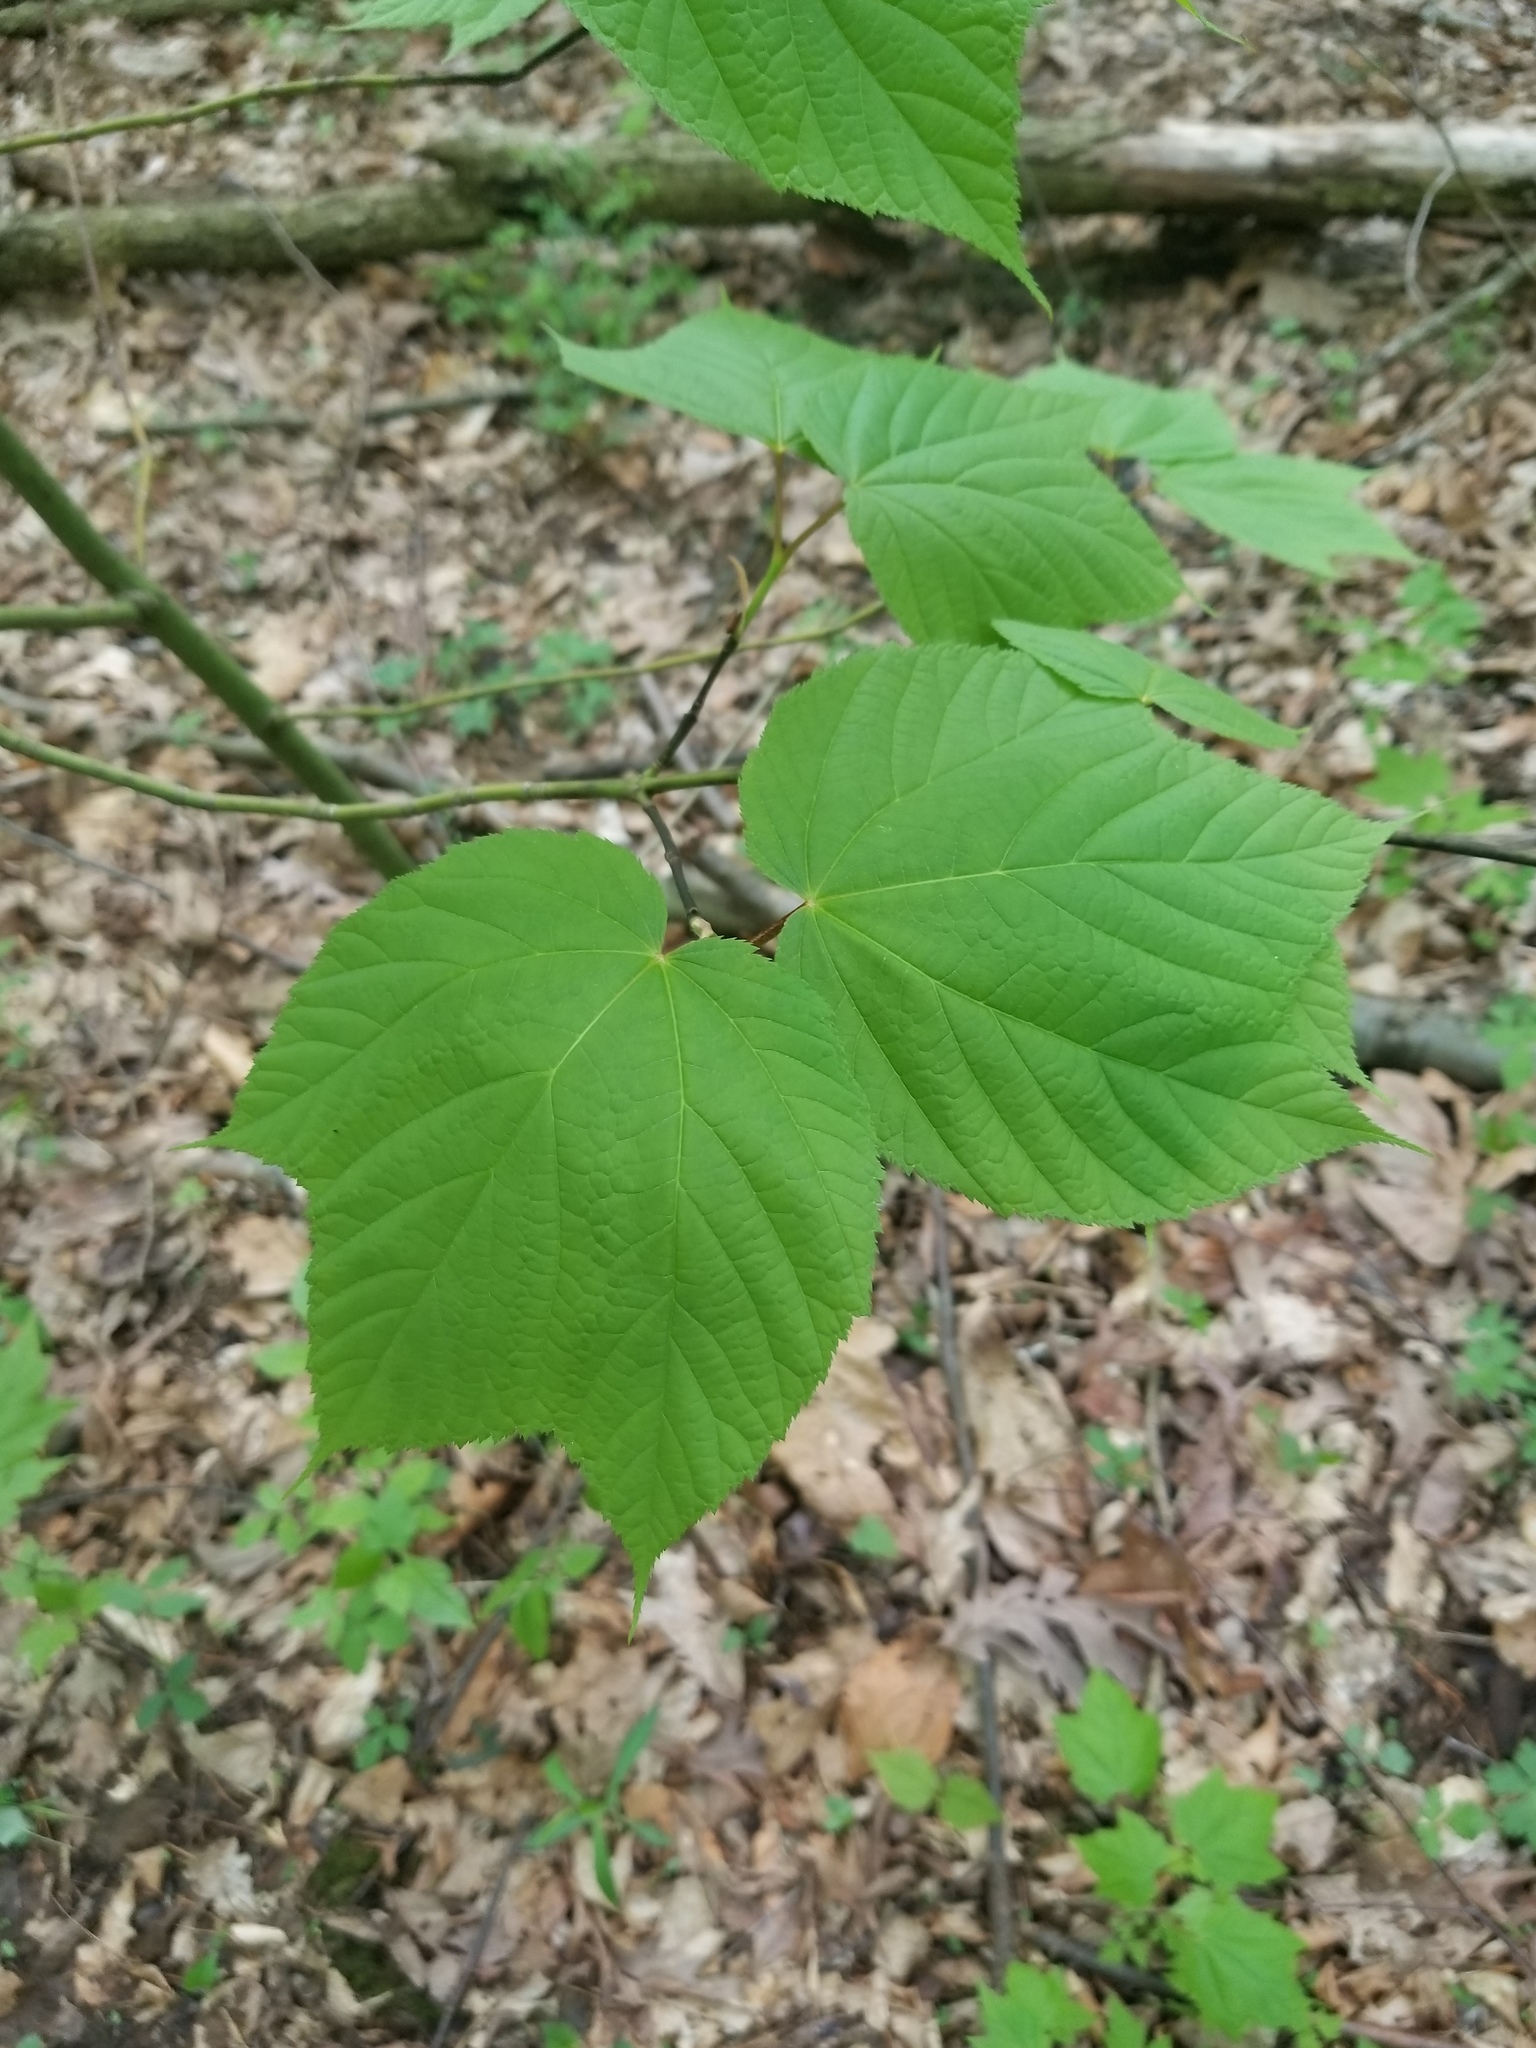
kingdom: Plantae
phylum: Tracheophyta
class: Magnoliopsida
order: Sapindales
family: Sapindaceae
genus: Acer
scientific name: Acer pensylvanicum
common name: Moosewood
